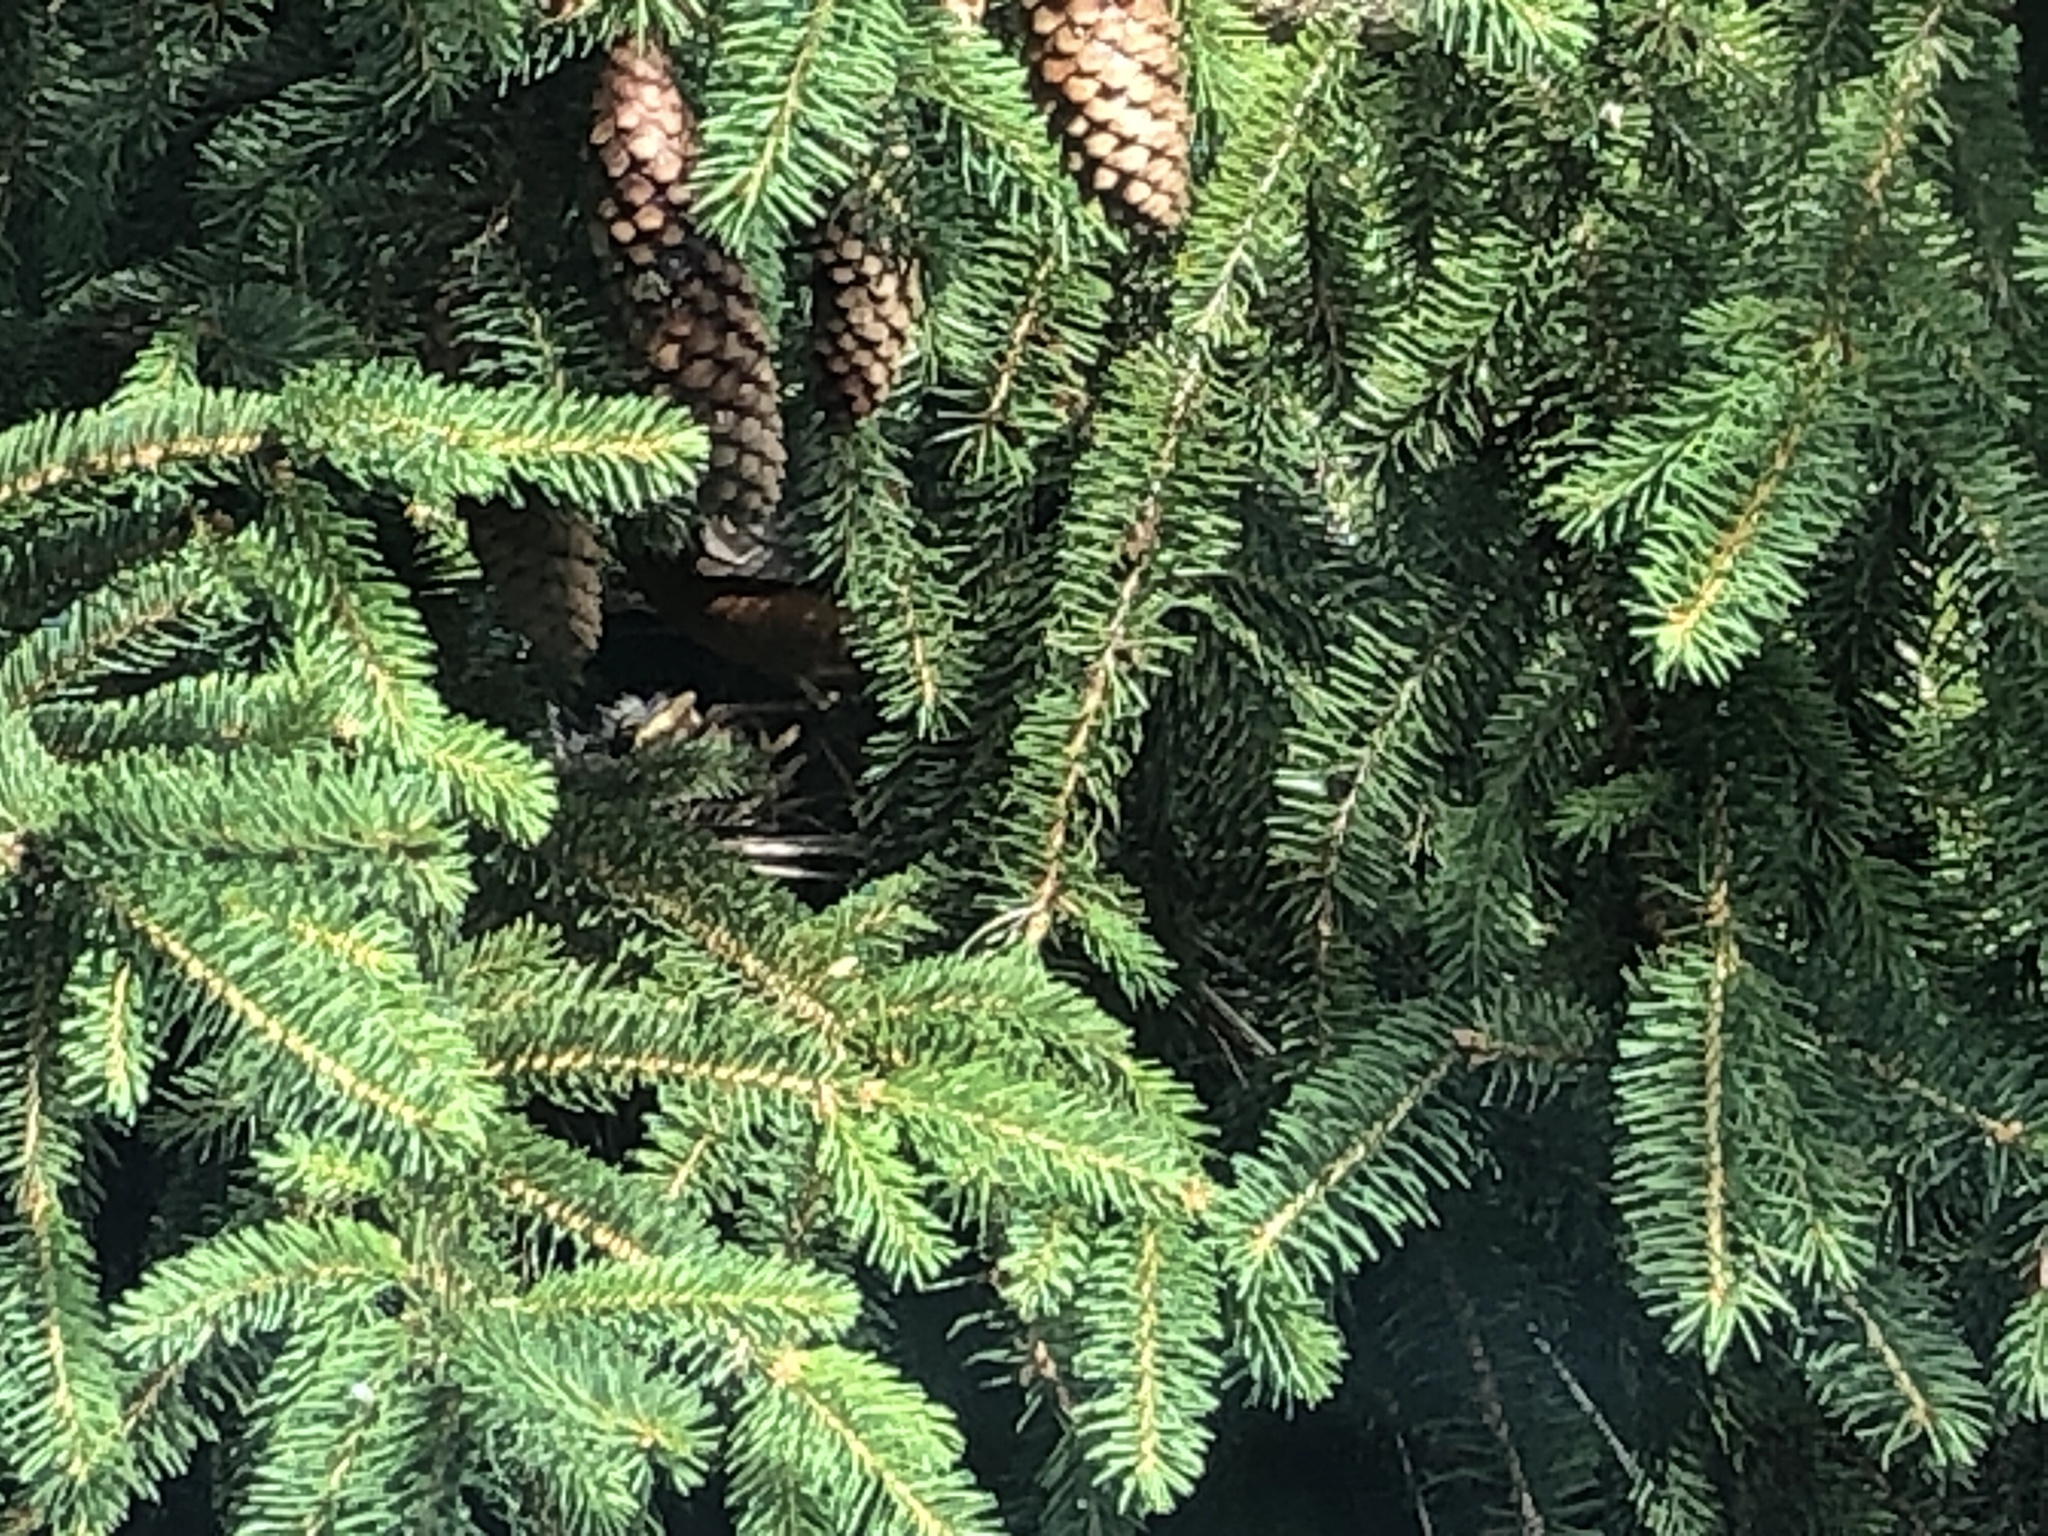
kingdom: Animalia
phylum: Chordata
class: Aves
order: Passeriformes
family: Turdidae
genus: Turdus
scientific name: Turdus migratorius
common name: American robin
